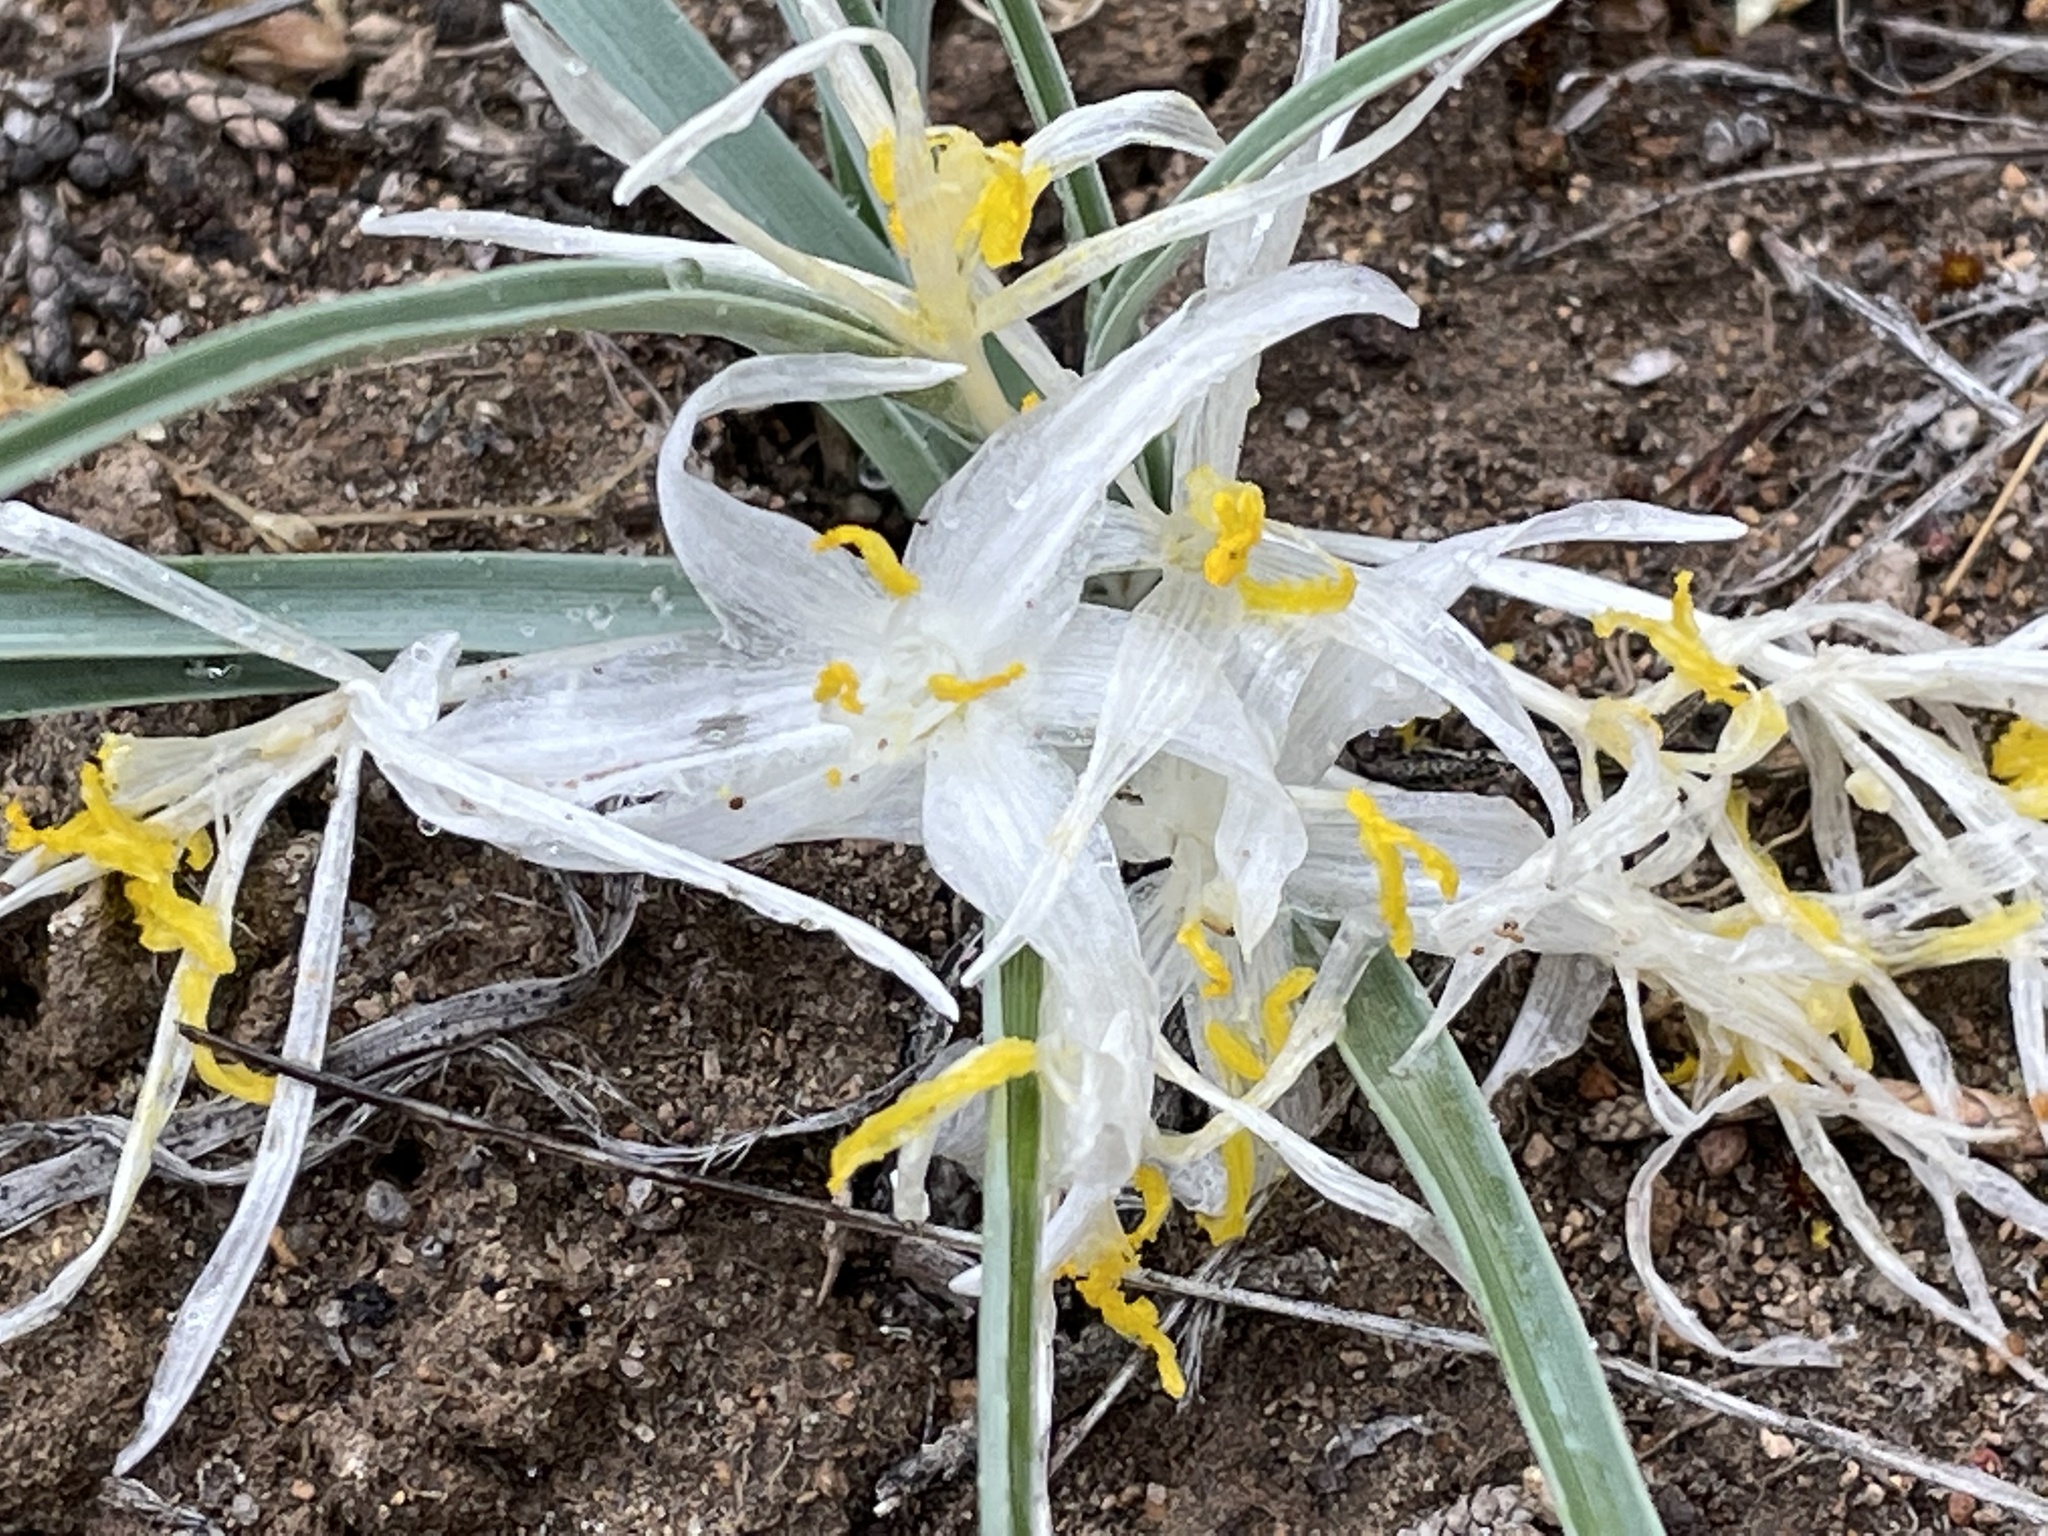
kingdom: Plantae
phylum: Tracheophyta
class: Liliopsida
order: Asparagales
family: Asparagaceae
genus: Leucocrinum
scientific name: Leucocrinum montanum
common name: Mountain-lily
